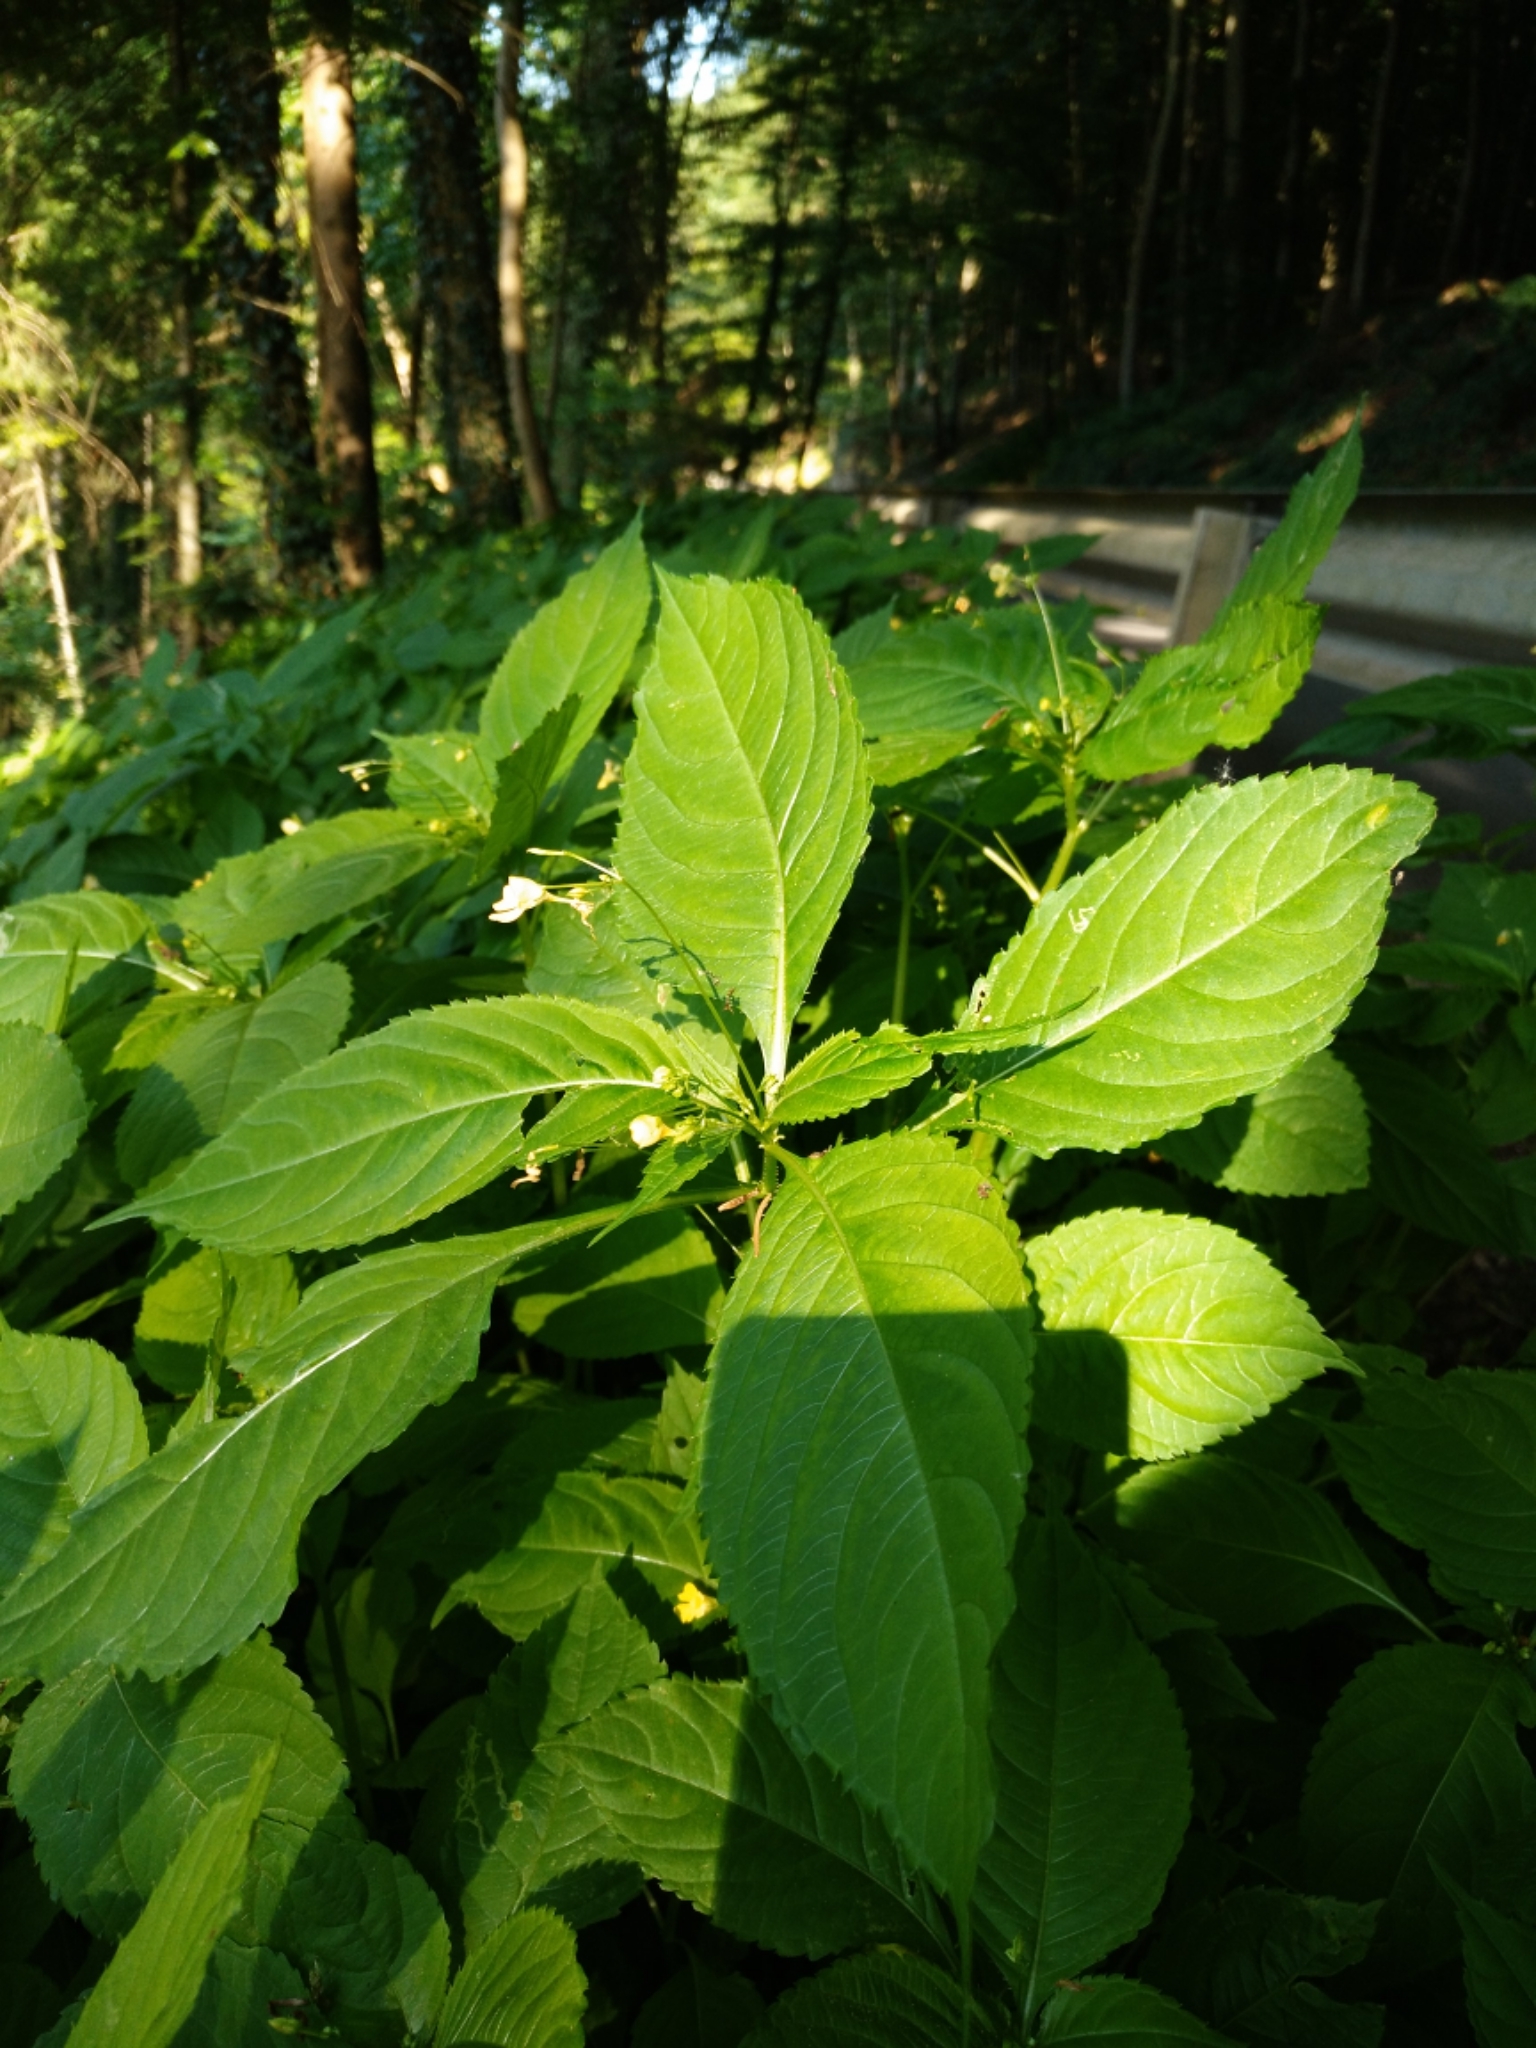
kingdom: Plantae
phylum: Tracheophyta
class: Magnoliopsida
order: Ericales
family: Balsaminaceae
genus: Impatiens
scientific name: Impatiens parviflora
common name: Small balsam
